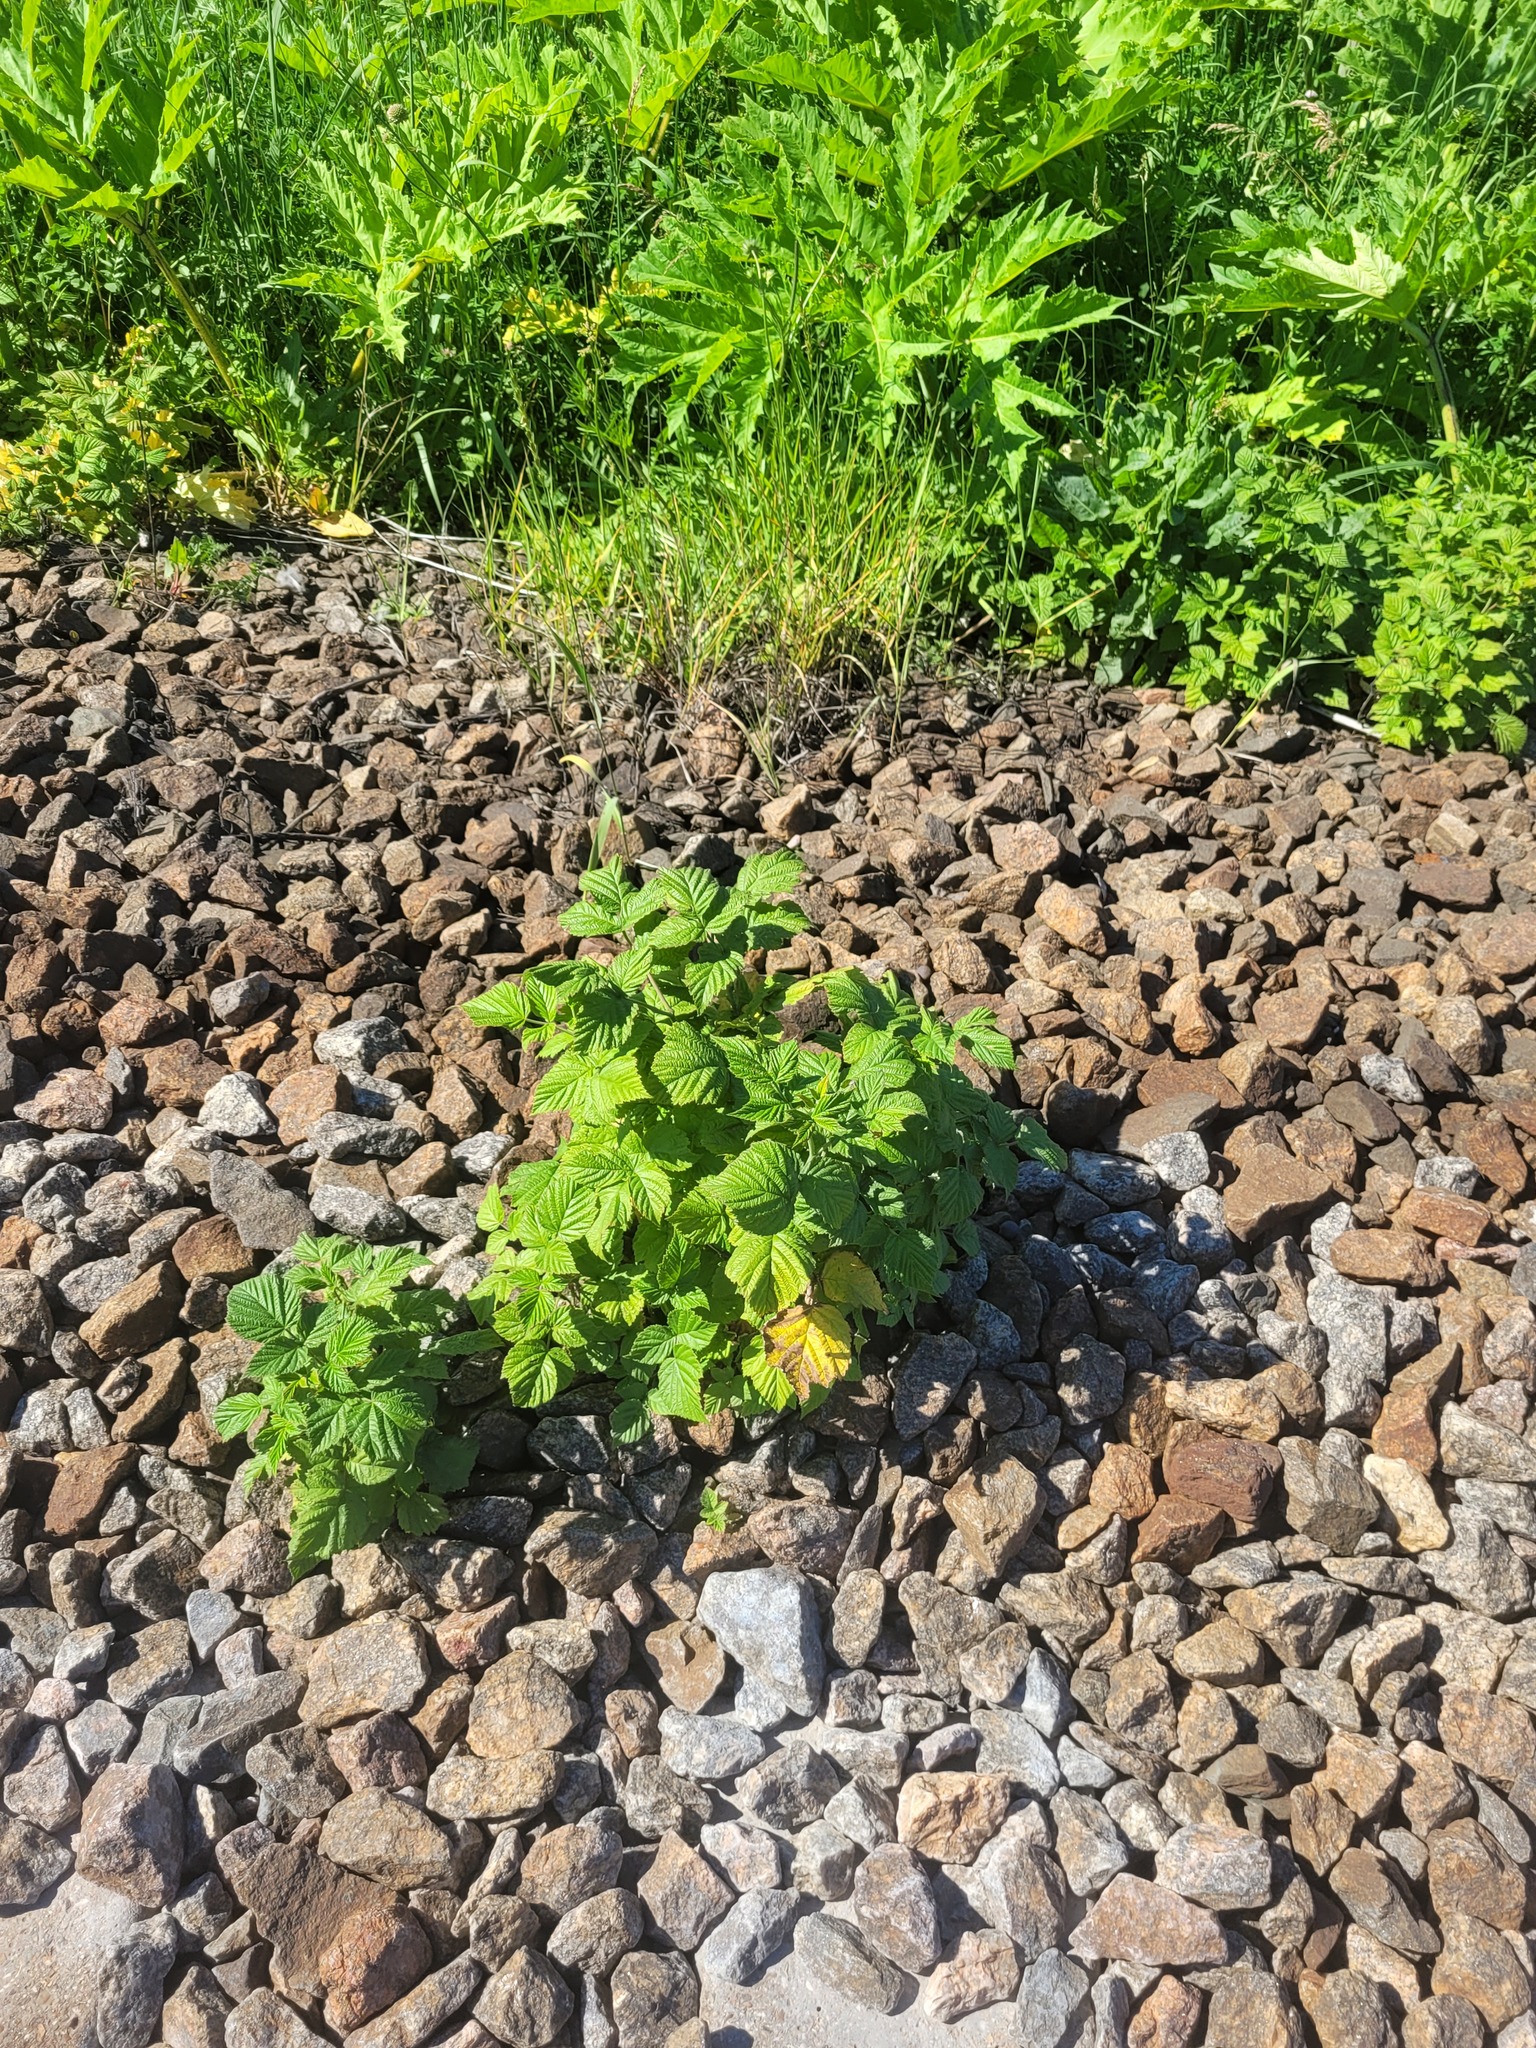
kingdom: Plantae
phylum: Tracheophyta
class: Magnoliopsida
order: Rosales
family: Rosaceae
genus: Rubus
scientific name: Rubus idaeus
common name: Raspberry
